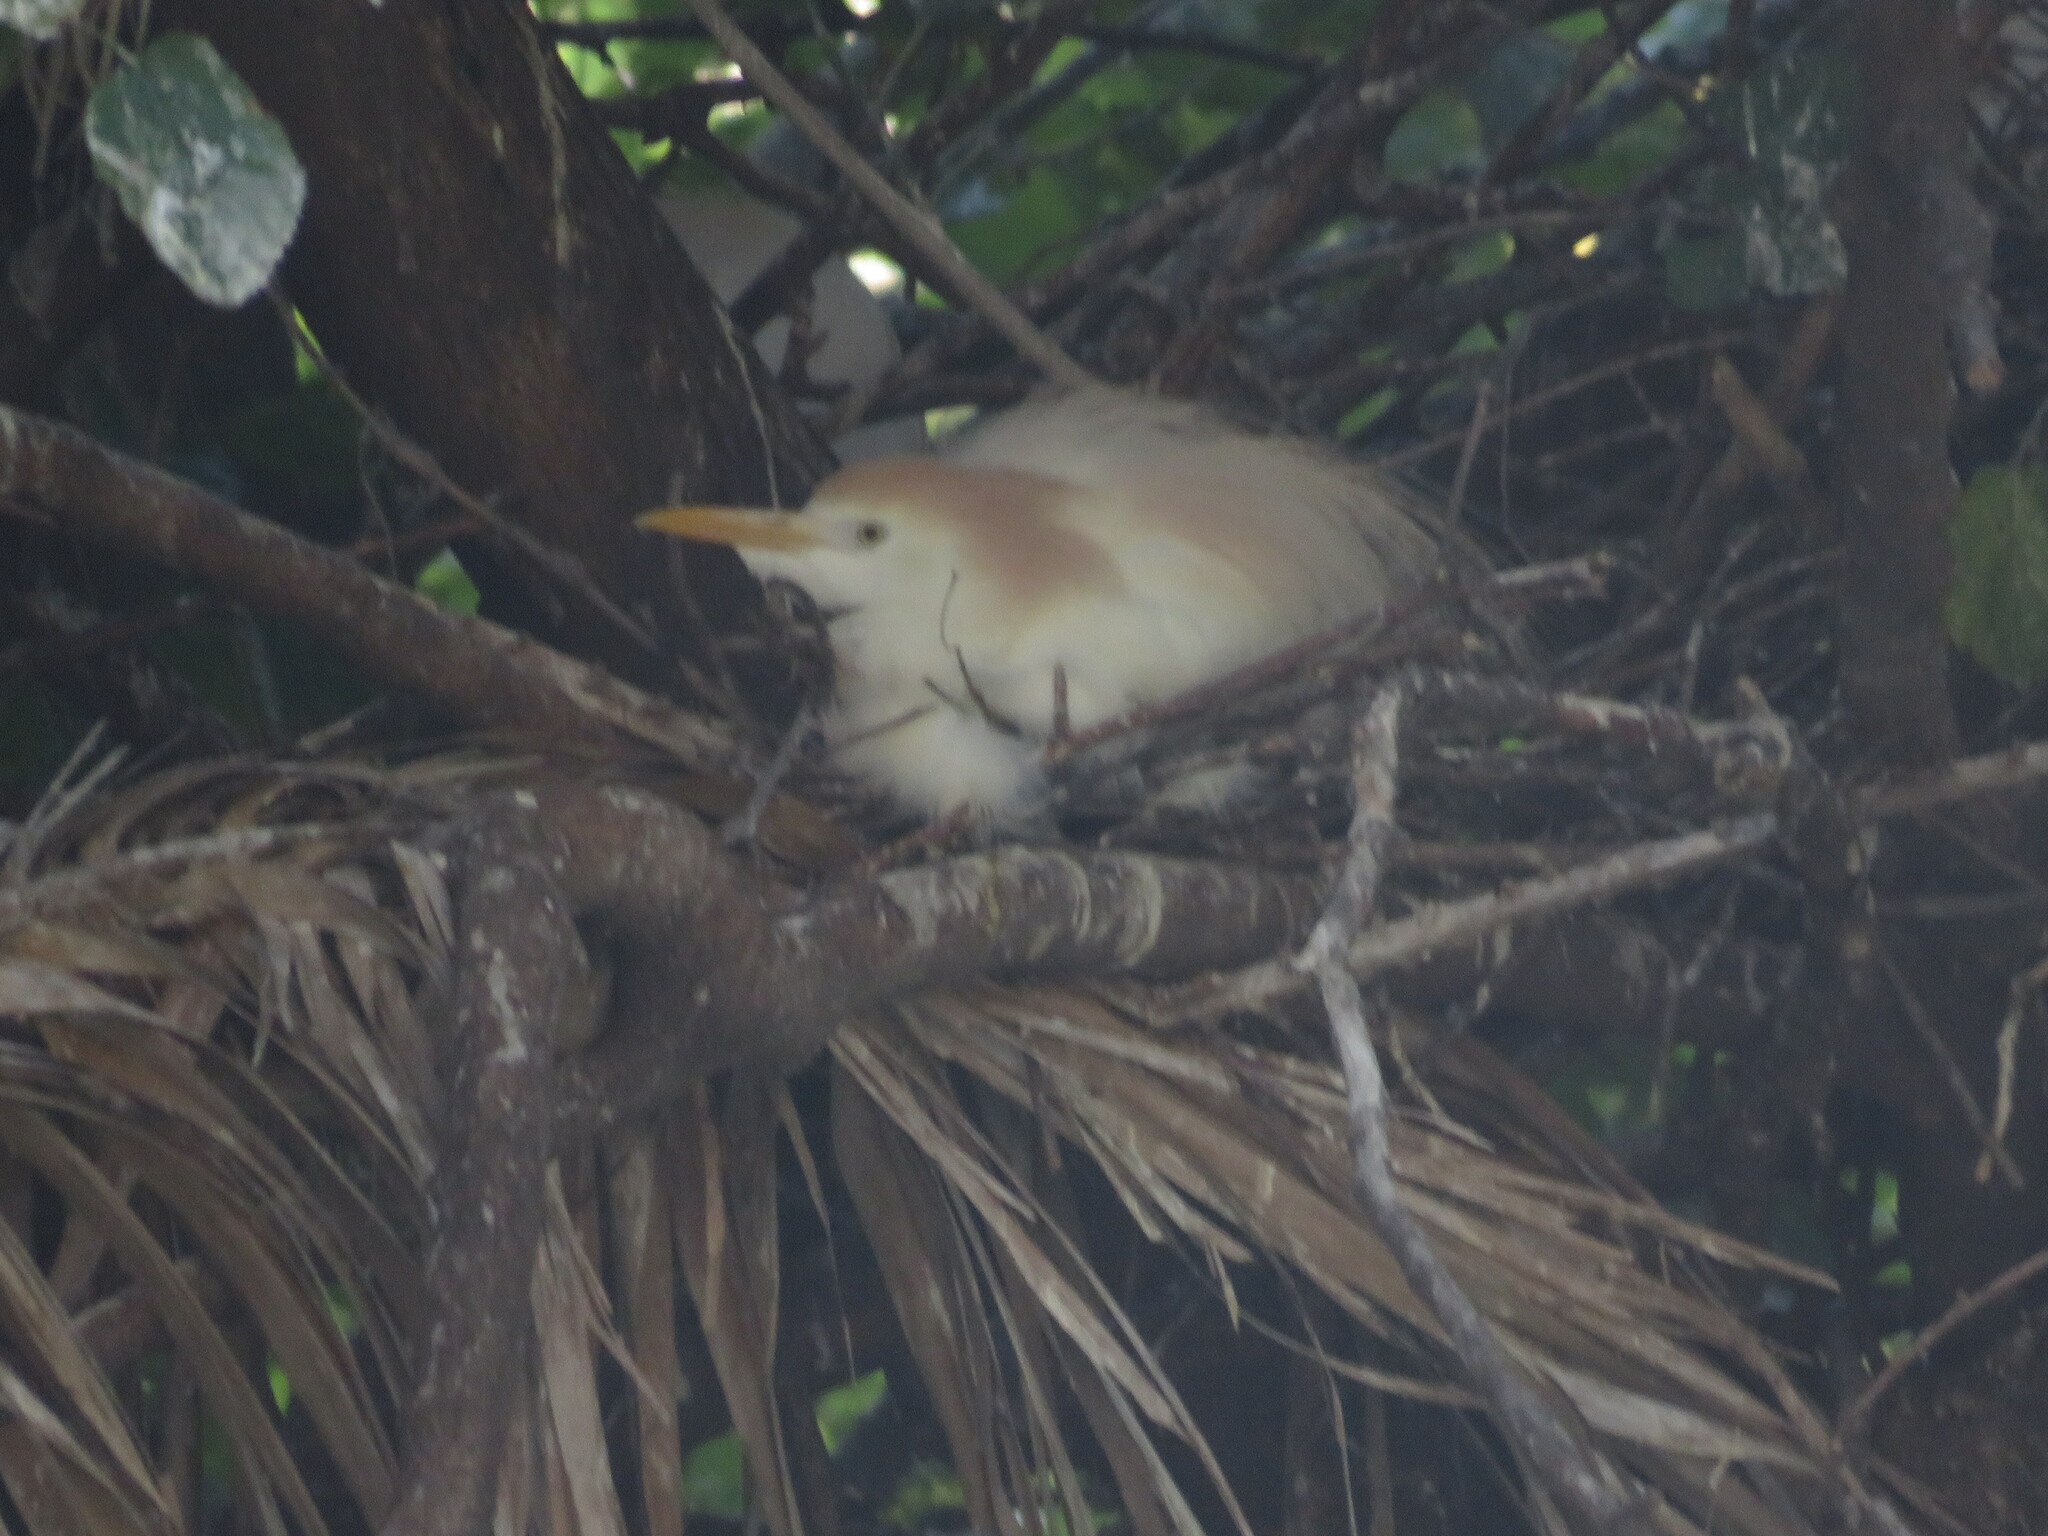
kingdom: Animalia
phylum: Chordata
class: Aves
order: Pelecaniformes
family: Ardeidae
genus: Bubulcus
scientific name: Bubulcus ibis
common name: Cattle egret
